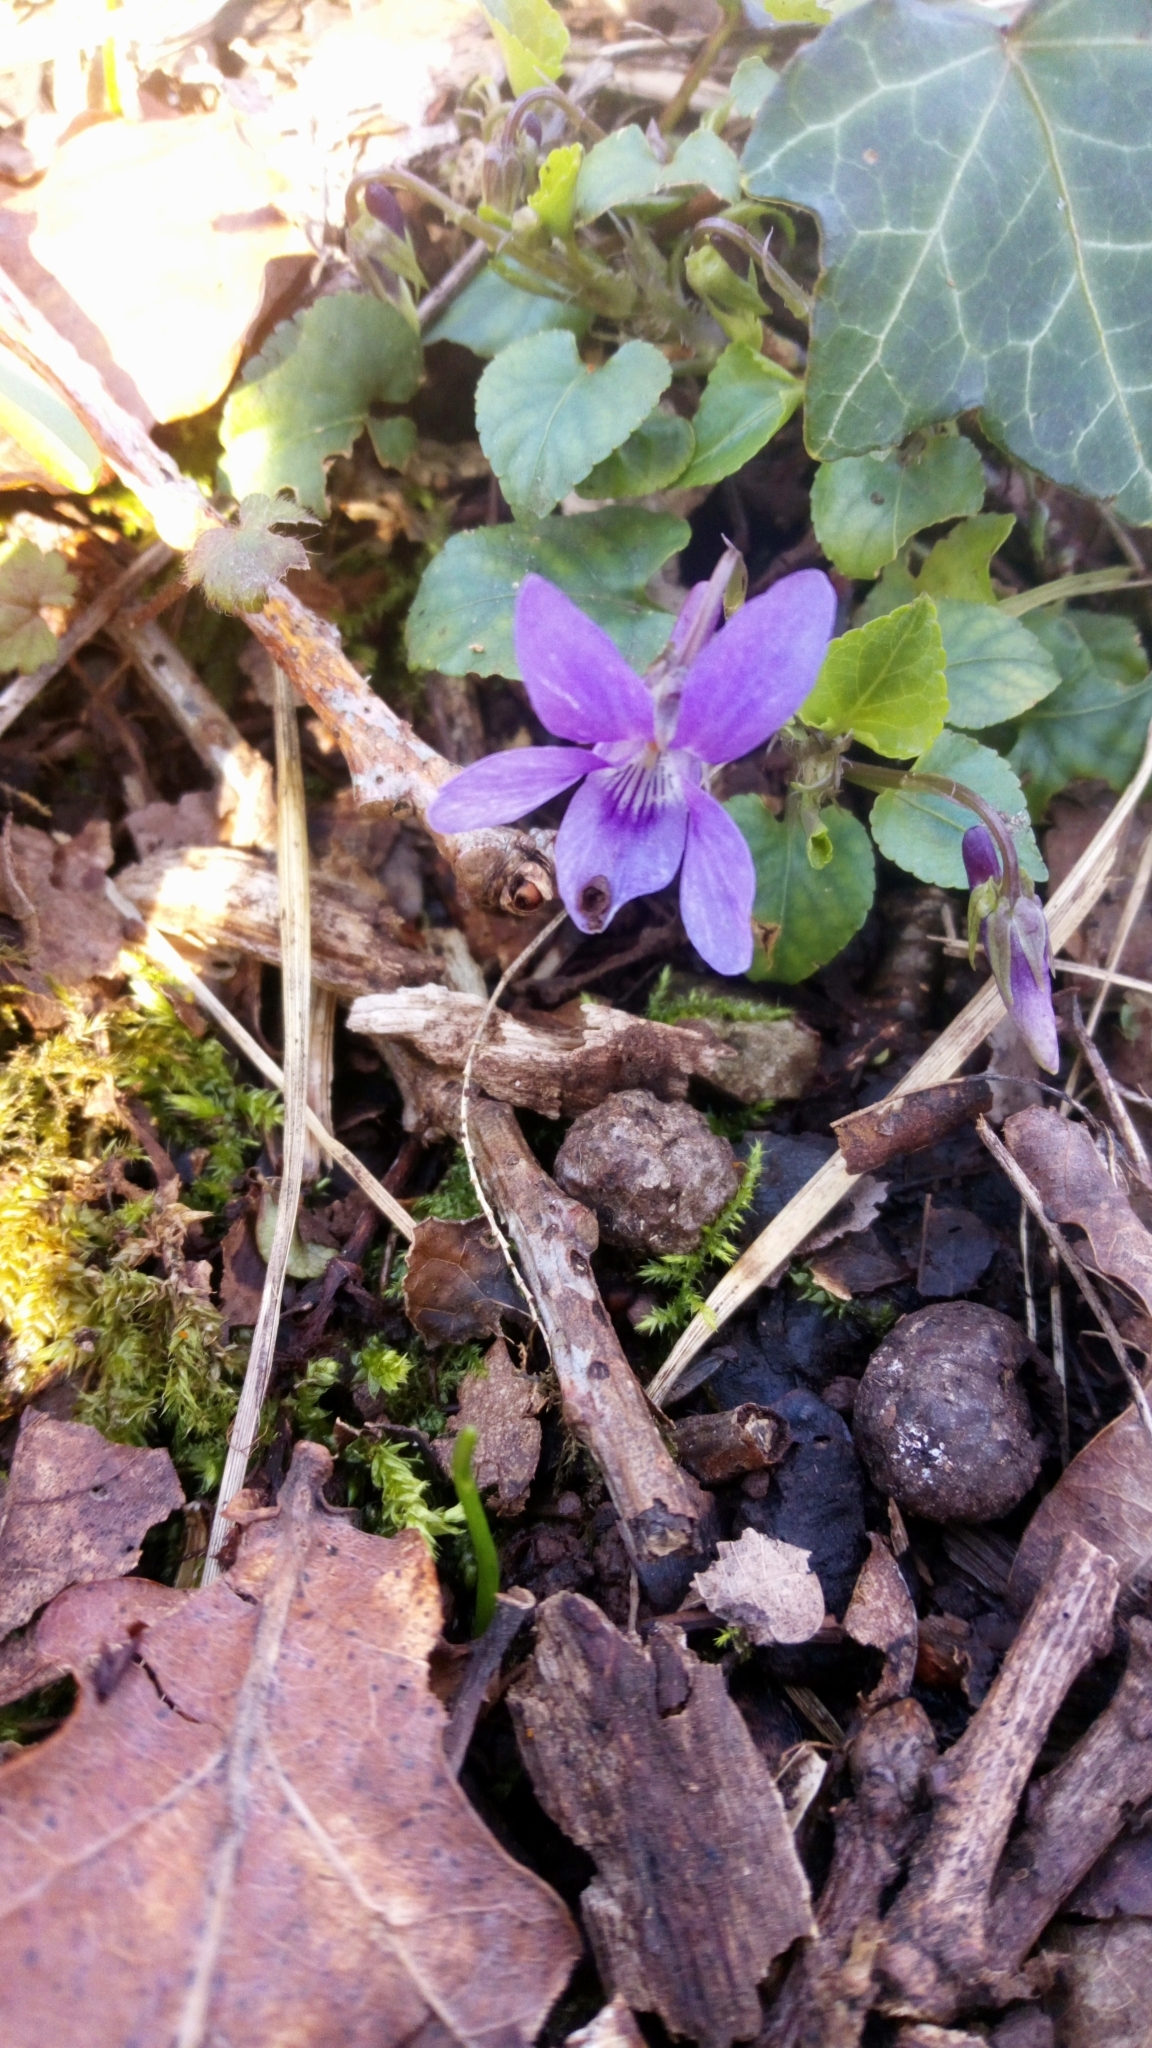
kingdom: Plantae
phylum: Tracheophyta
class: Magnoliopsida
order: Malpighiales
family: Violaceae
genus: Viola
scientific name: Viola reichenbachiana
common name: Early dog-violet
